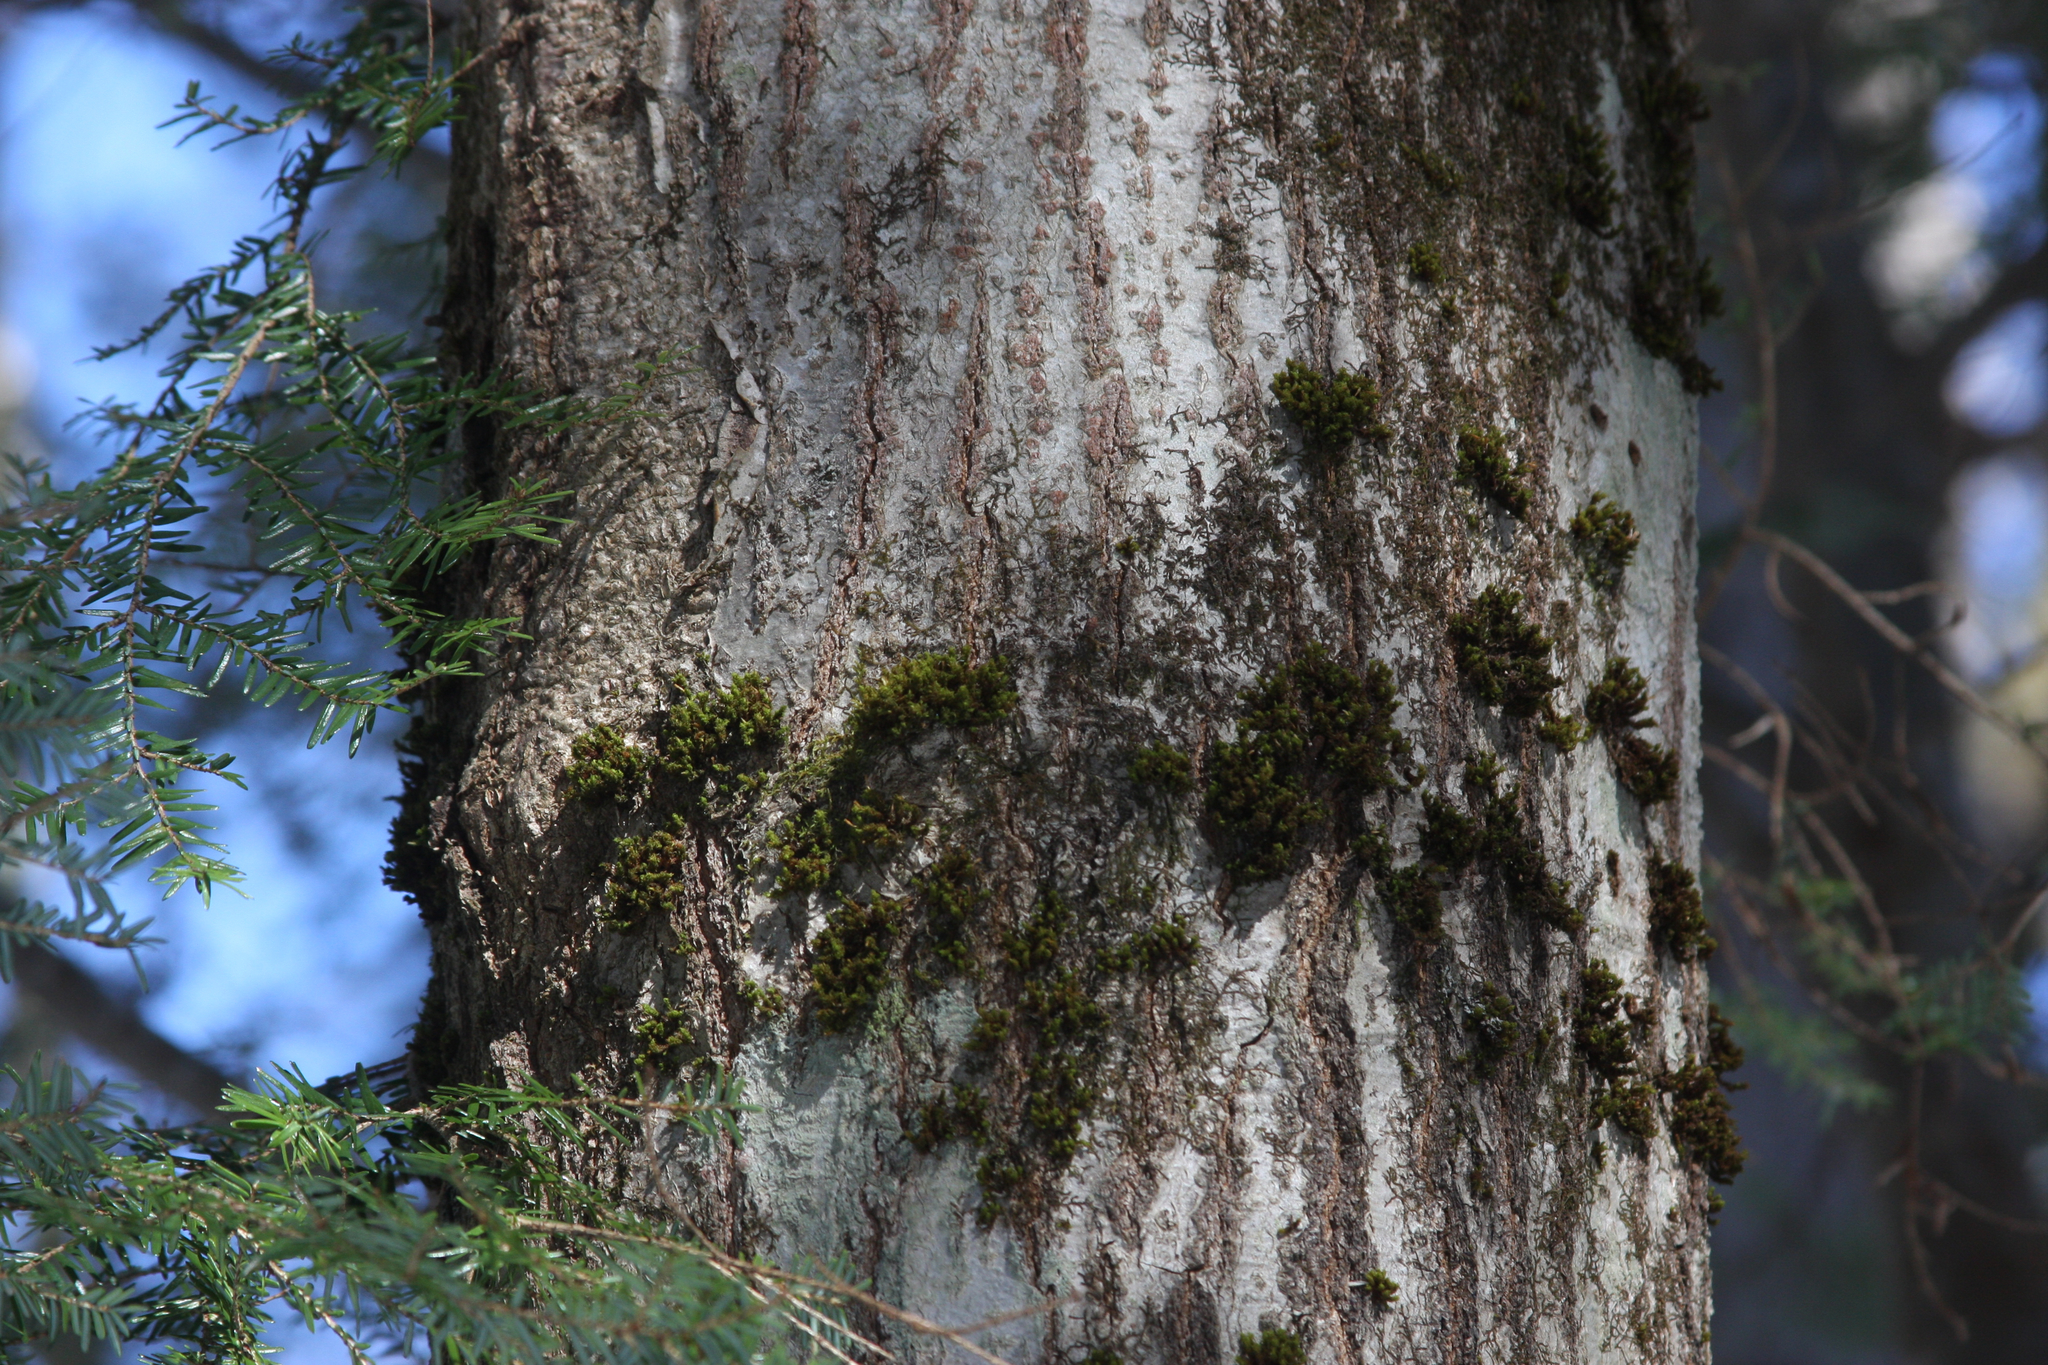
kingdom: Plantae
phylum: Bryophyta
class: Bryopsida
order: Orthotrichales
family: Orthotrichaceae
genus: Ulota
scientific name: Ulota crispa
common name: Crisped pincushion moss
